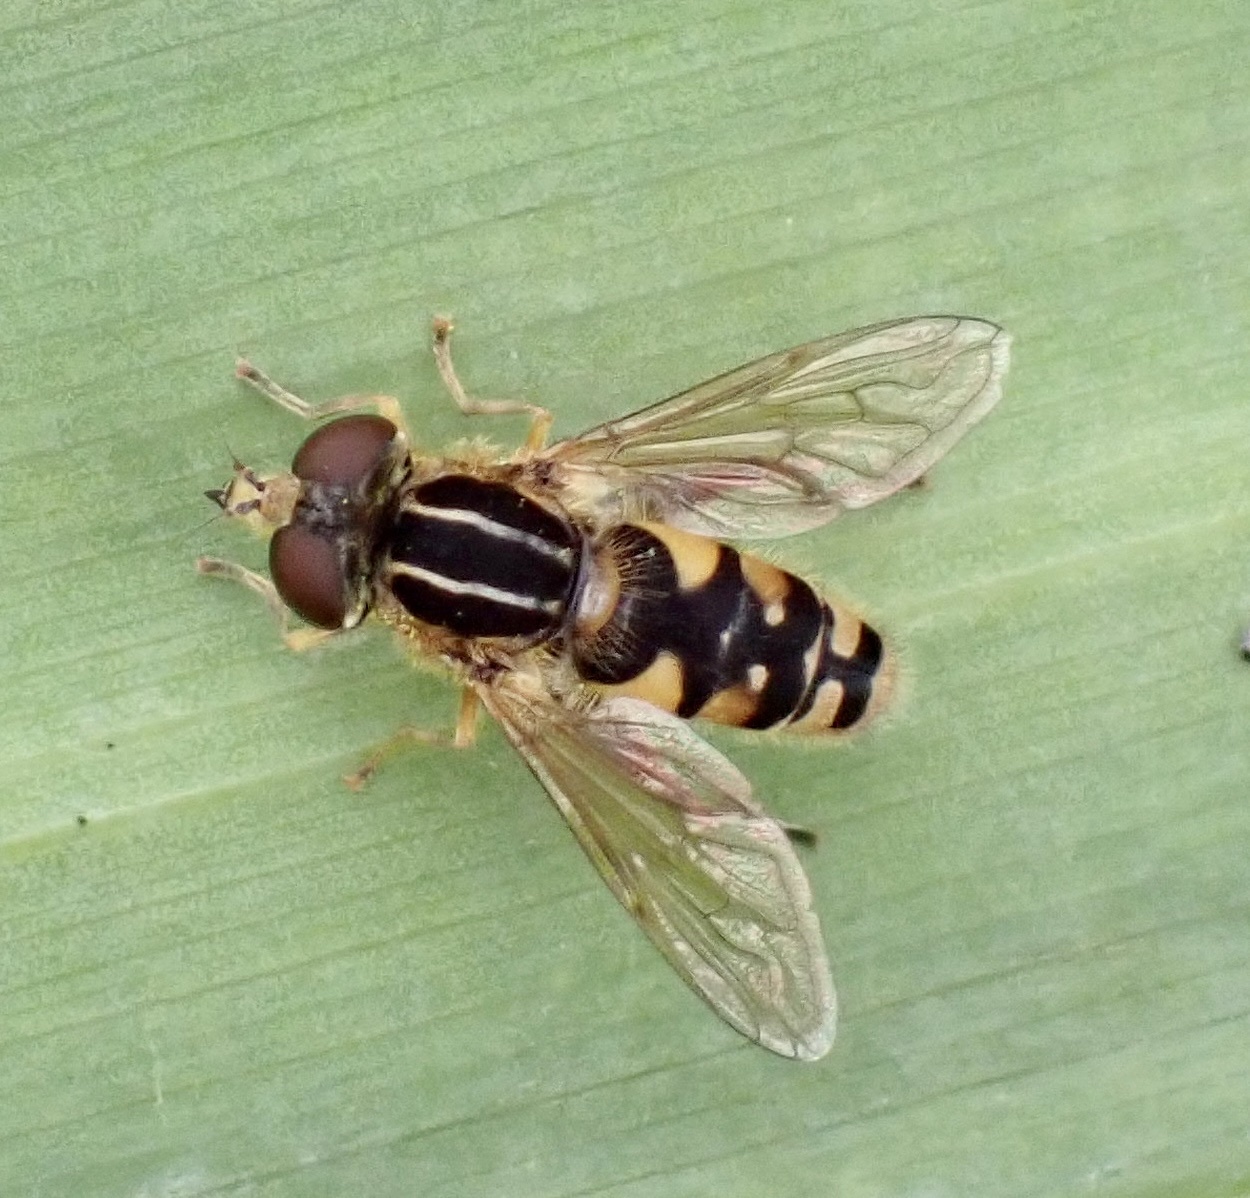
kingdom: Animalia
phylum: Arthropoda
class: Insecta
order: Diptera
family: Syrphidae
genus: Eurimyia
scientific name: Eurimyia lineatus
